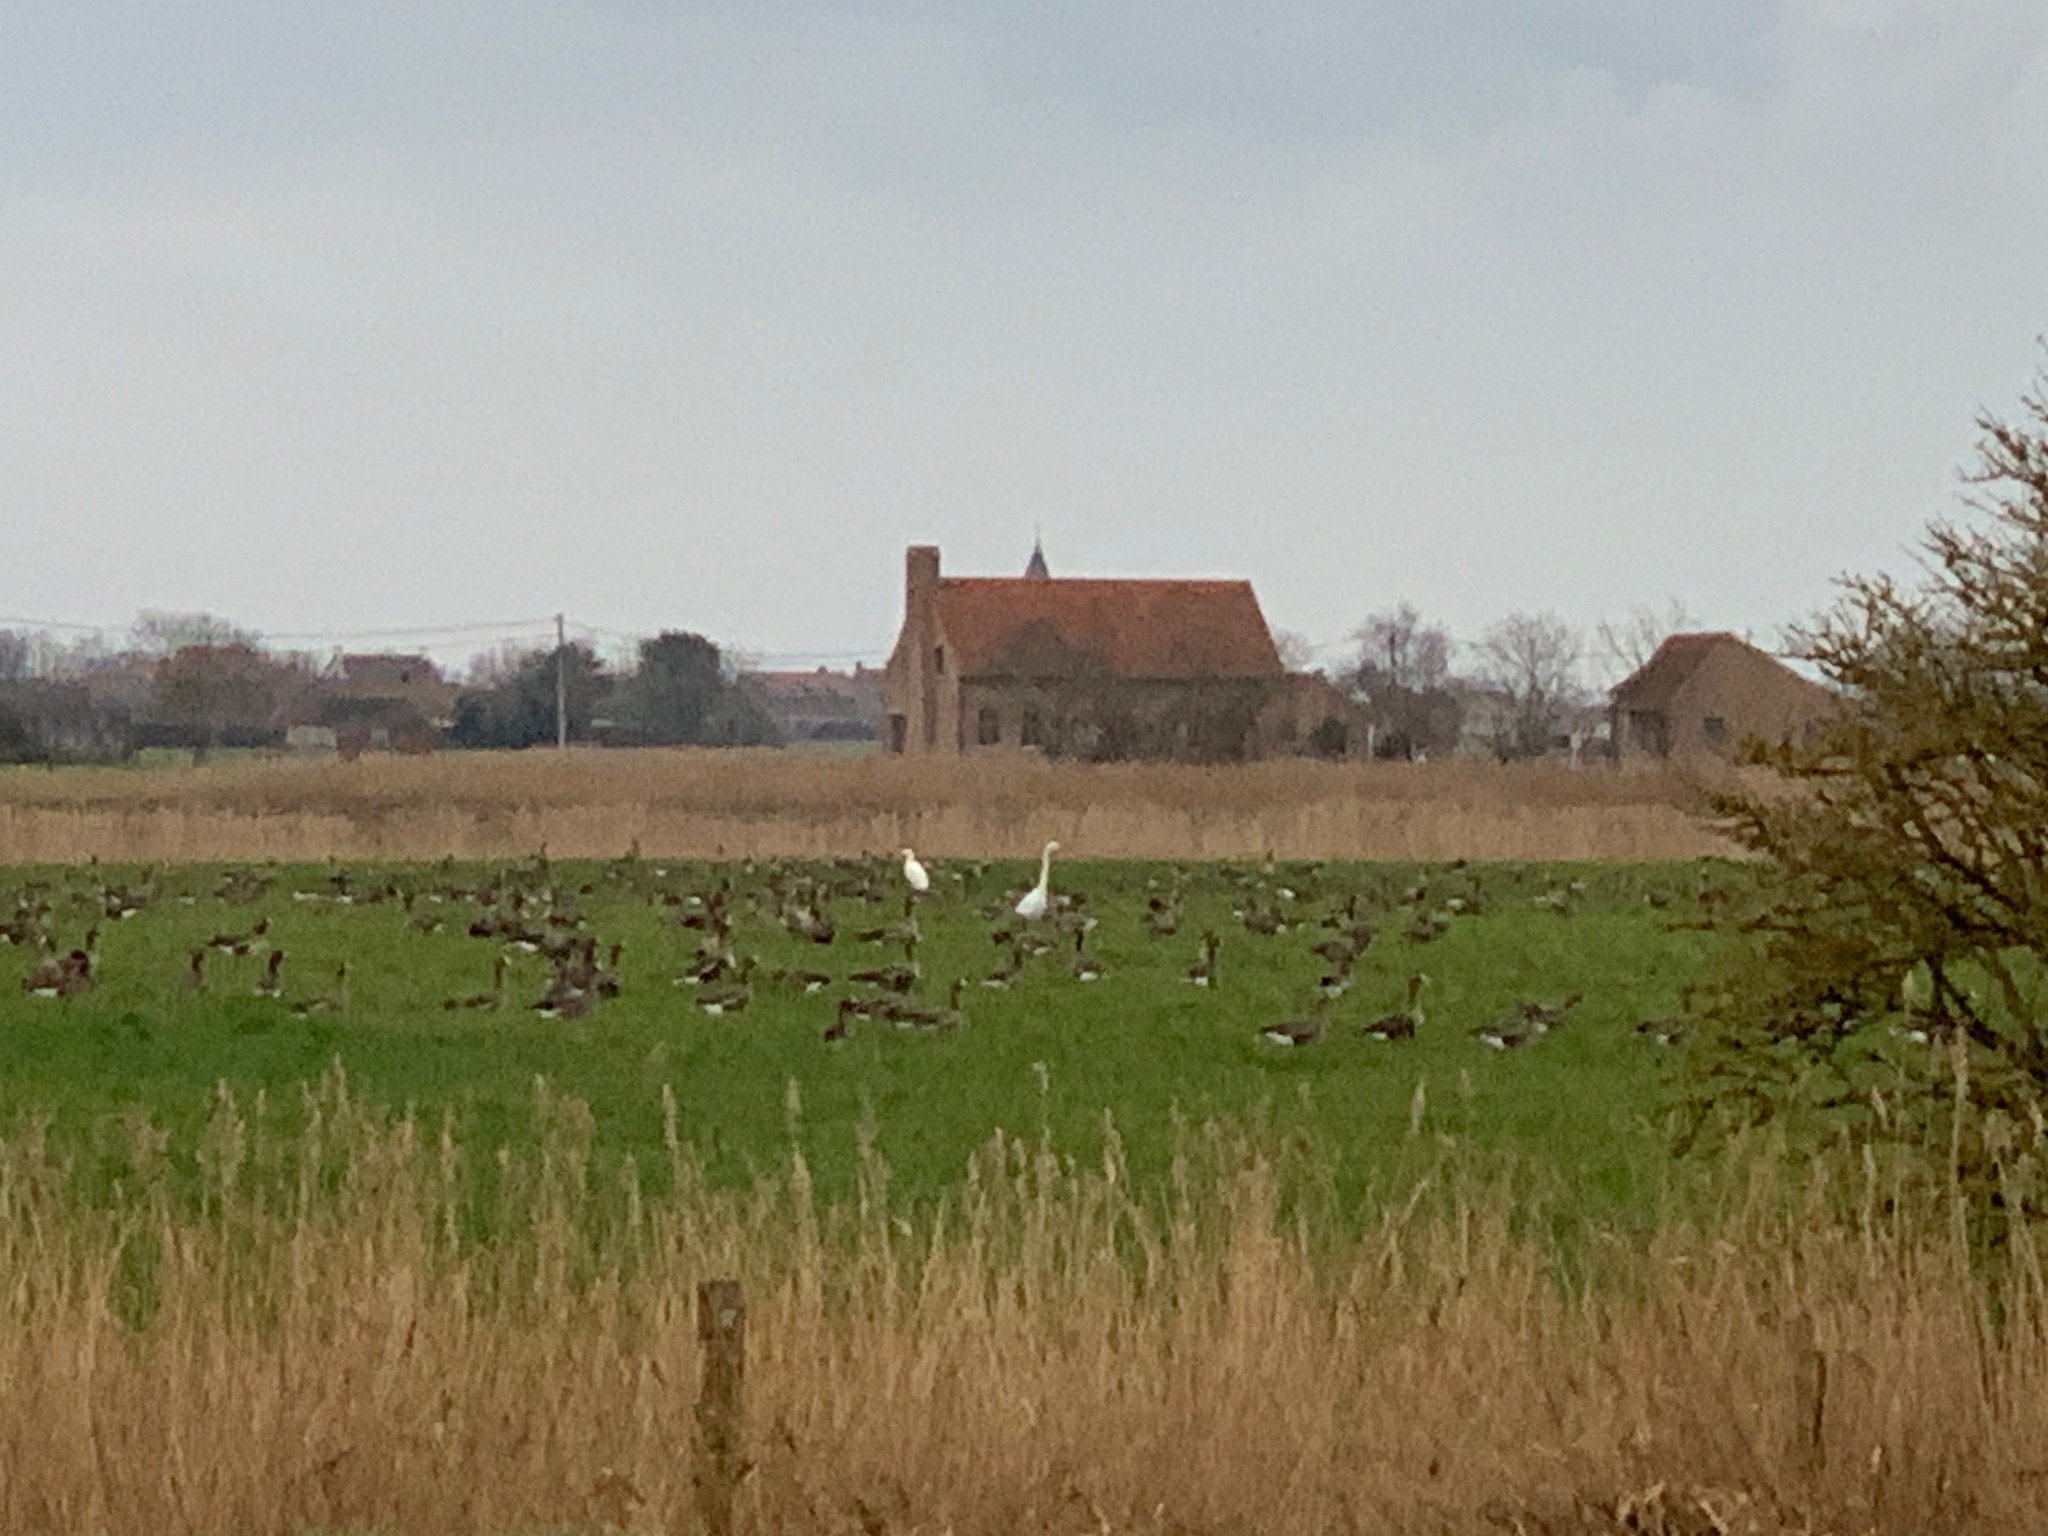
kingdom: Animalia
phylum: Chordata
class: Aves
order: Pelecaniformes
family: Ardeidae
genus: Ardea
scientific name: Ardea alba
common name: Great egret
